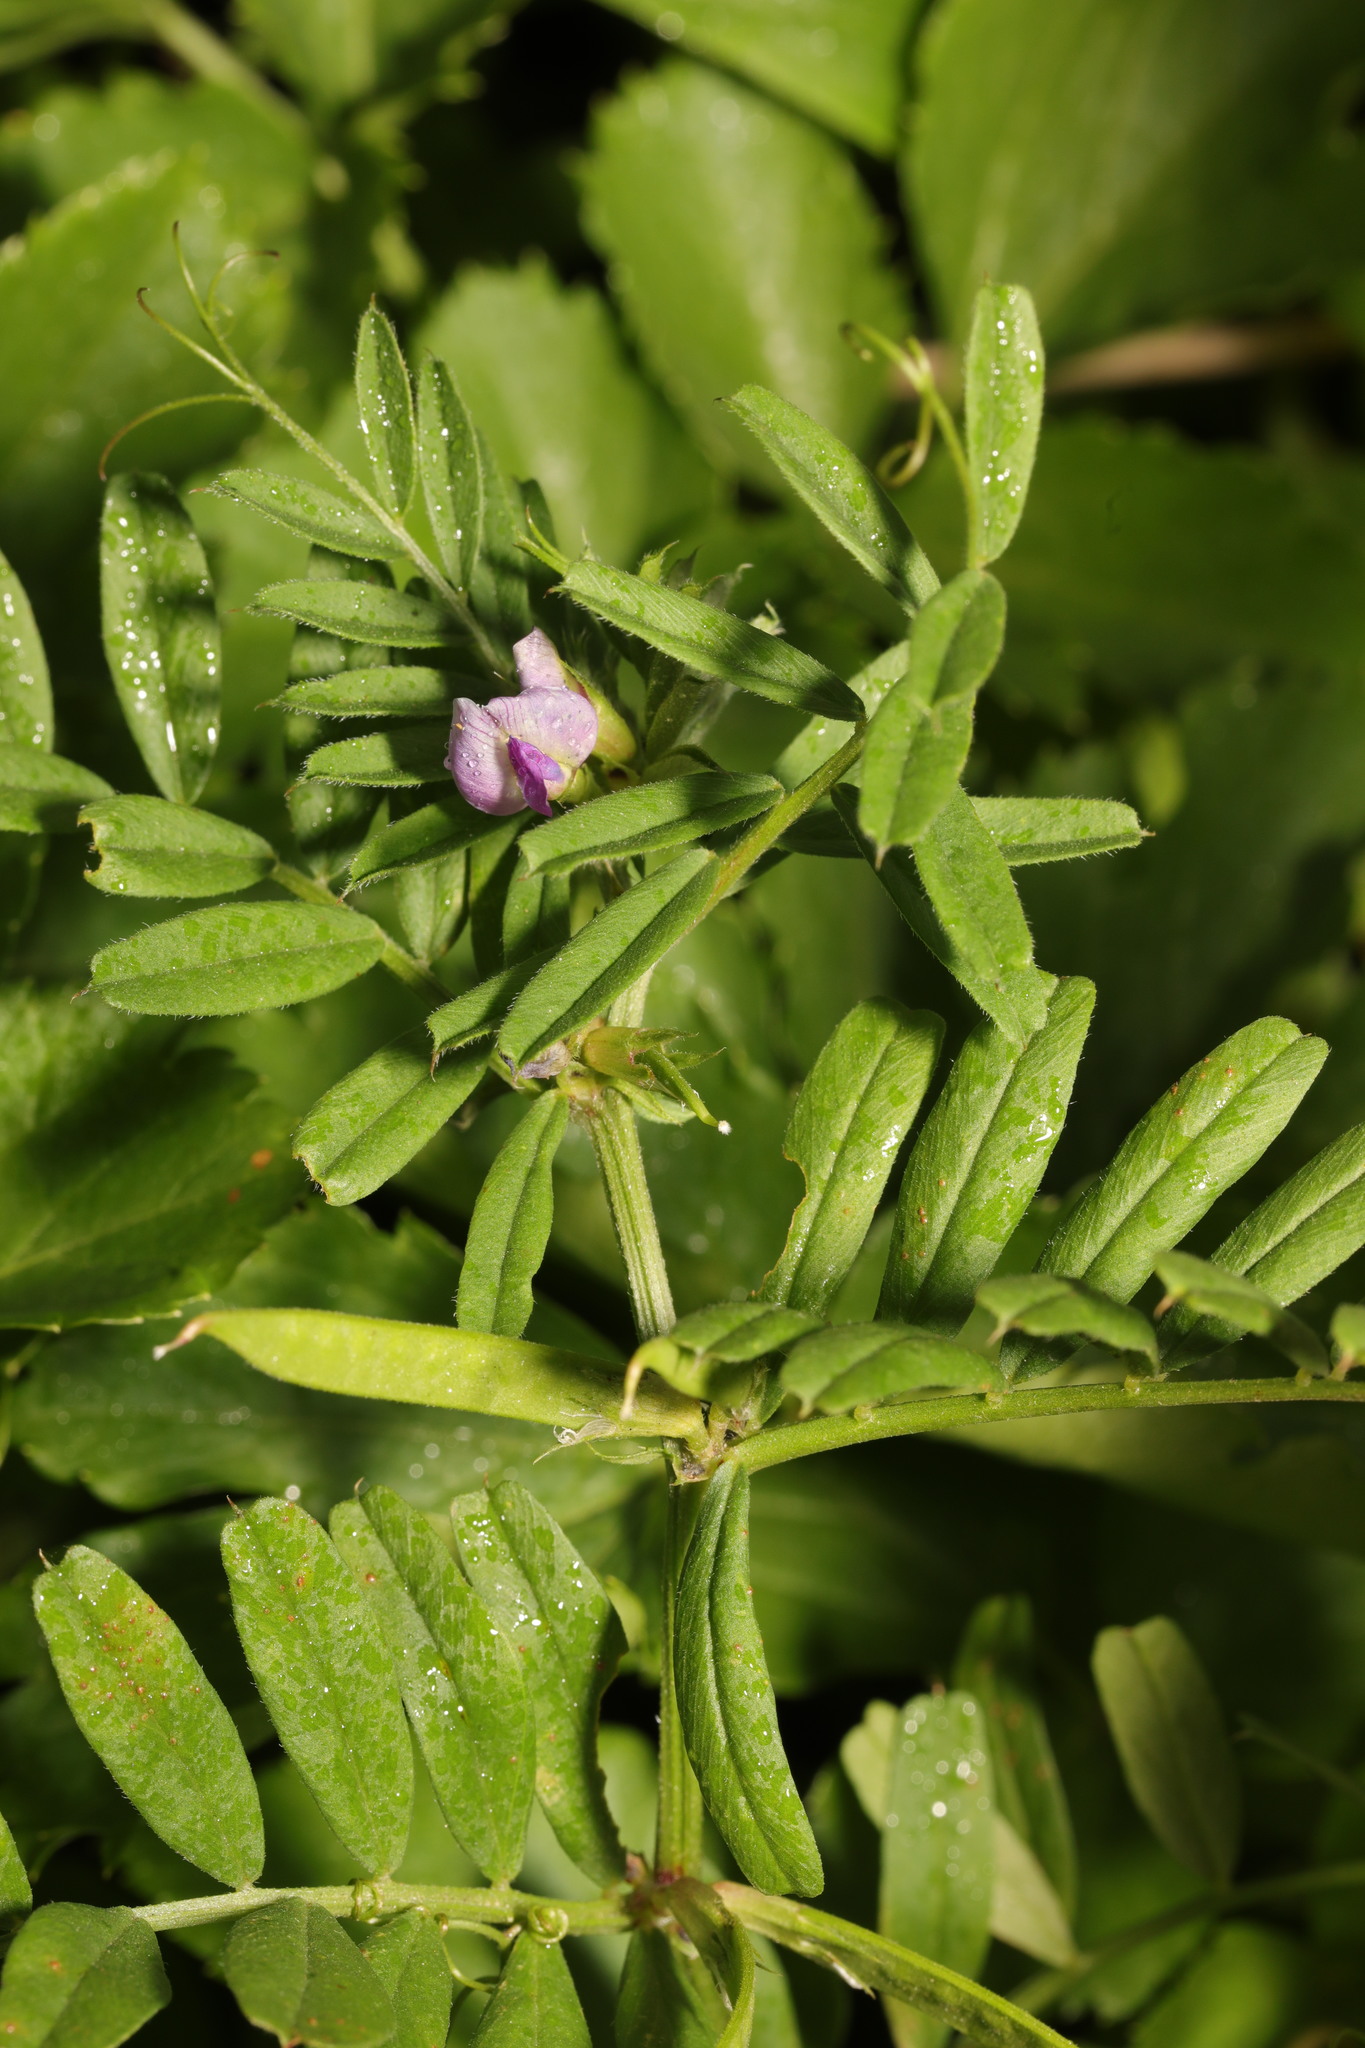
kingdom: Plantae
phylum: Tracheophyta
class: Magnoliopsida
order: Fabales
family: Fabaceae
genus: Vicia
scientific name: Vicia sativa
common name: Garden vetch
